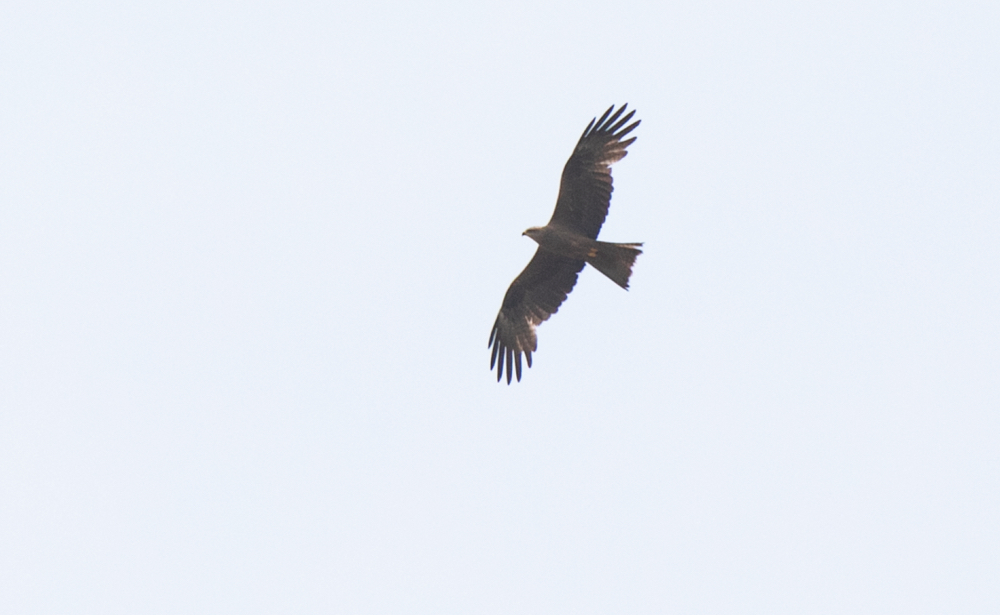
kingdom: Animalia
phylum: Chordata
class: Aves
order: Accipitriformes
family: Accipitridae
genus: Milvus
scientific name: Milvus migrans
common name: Black kite
